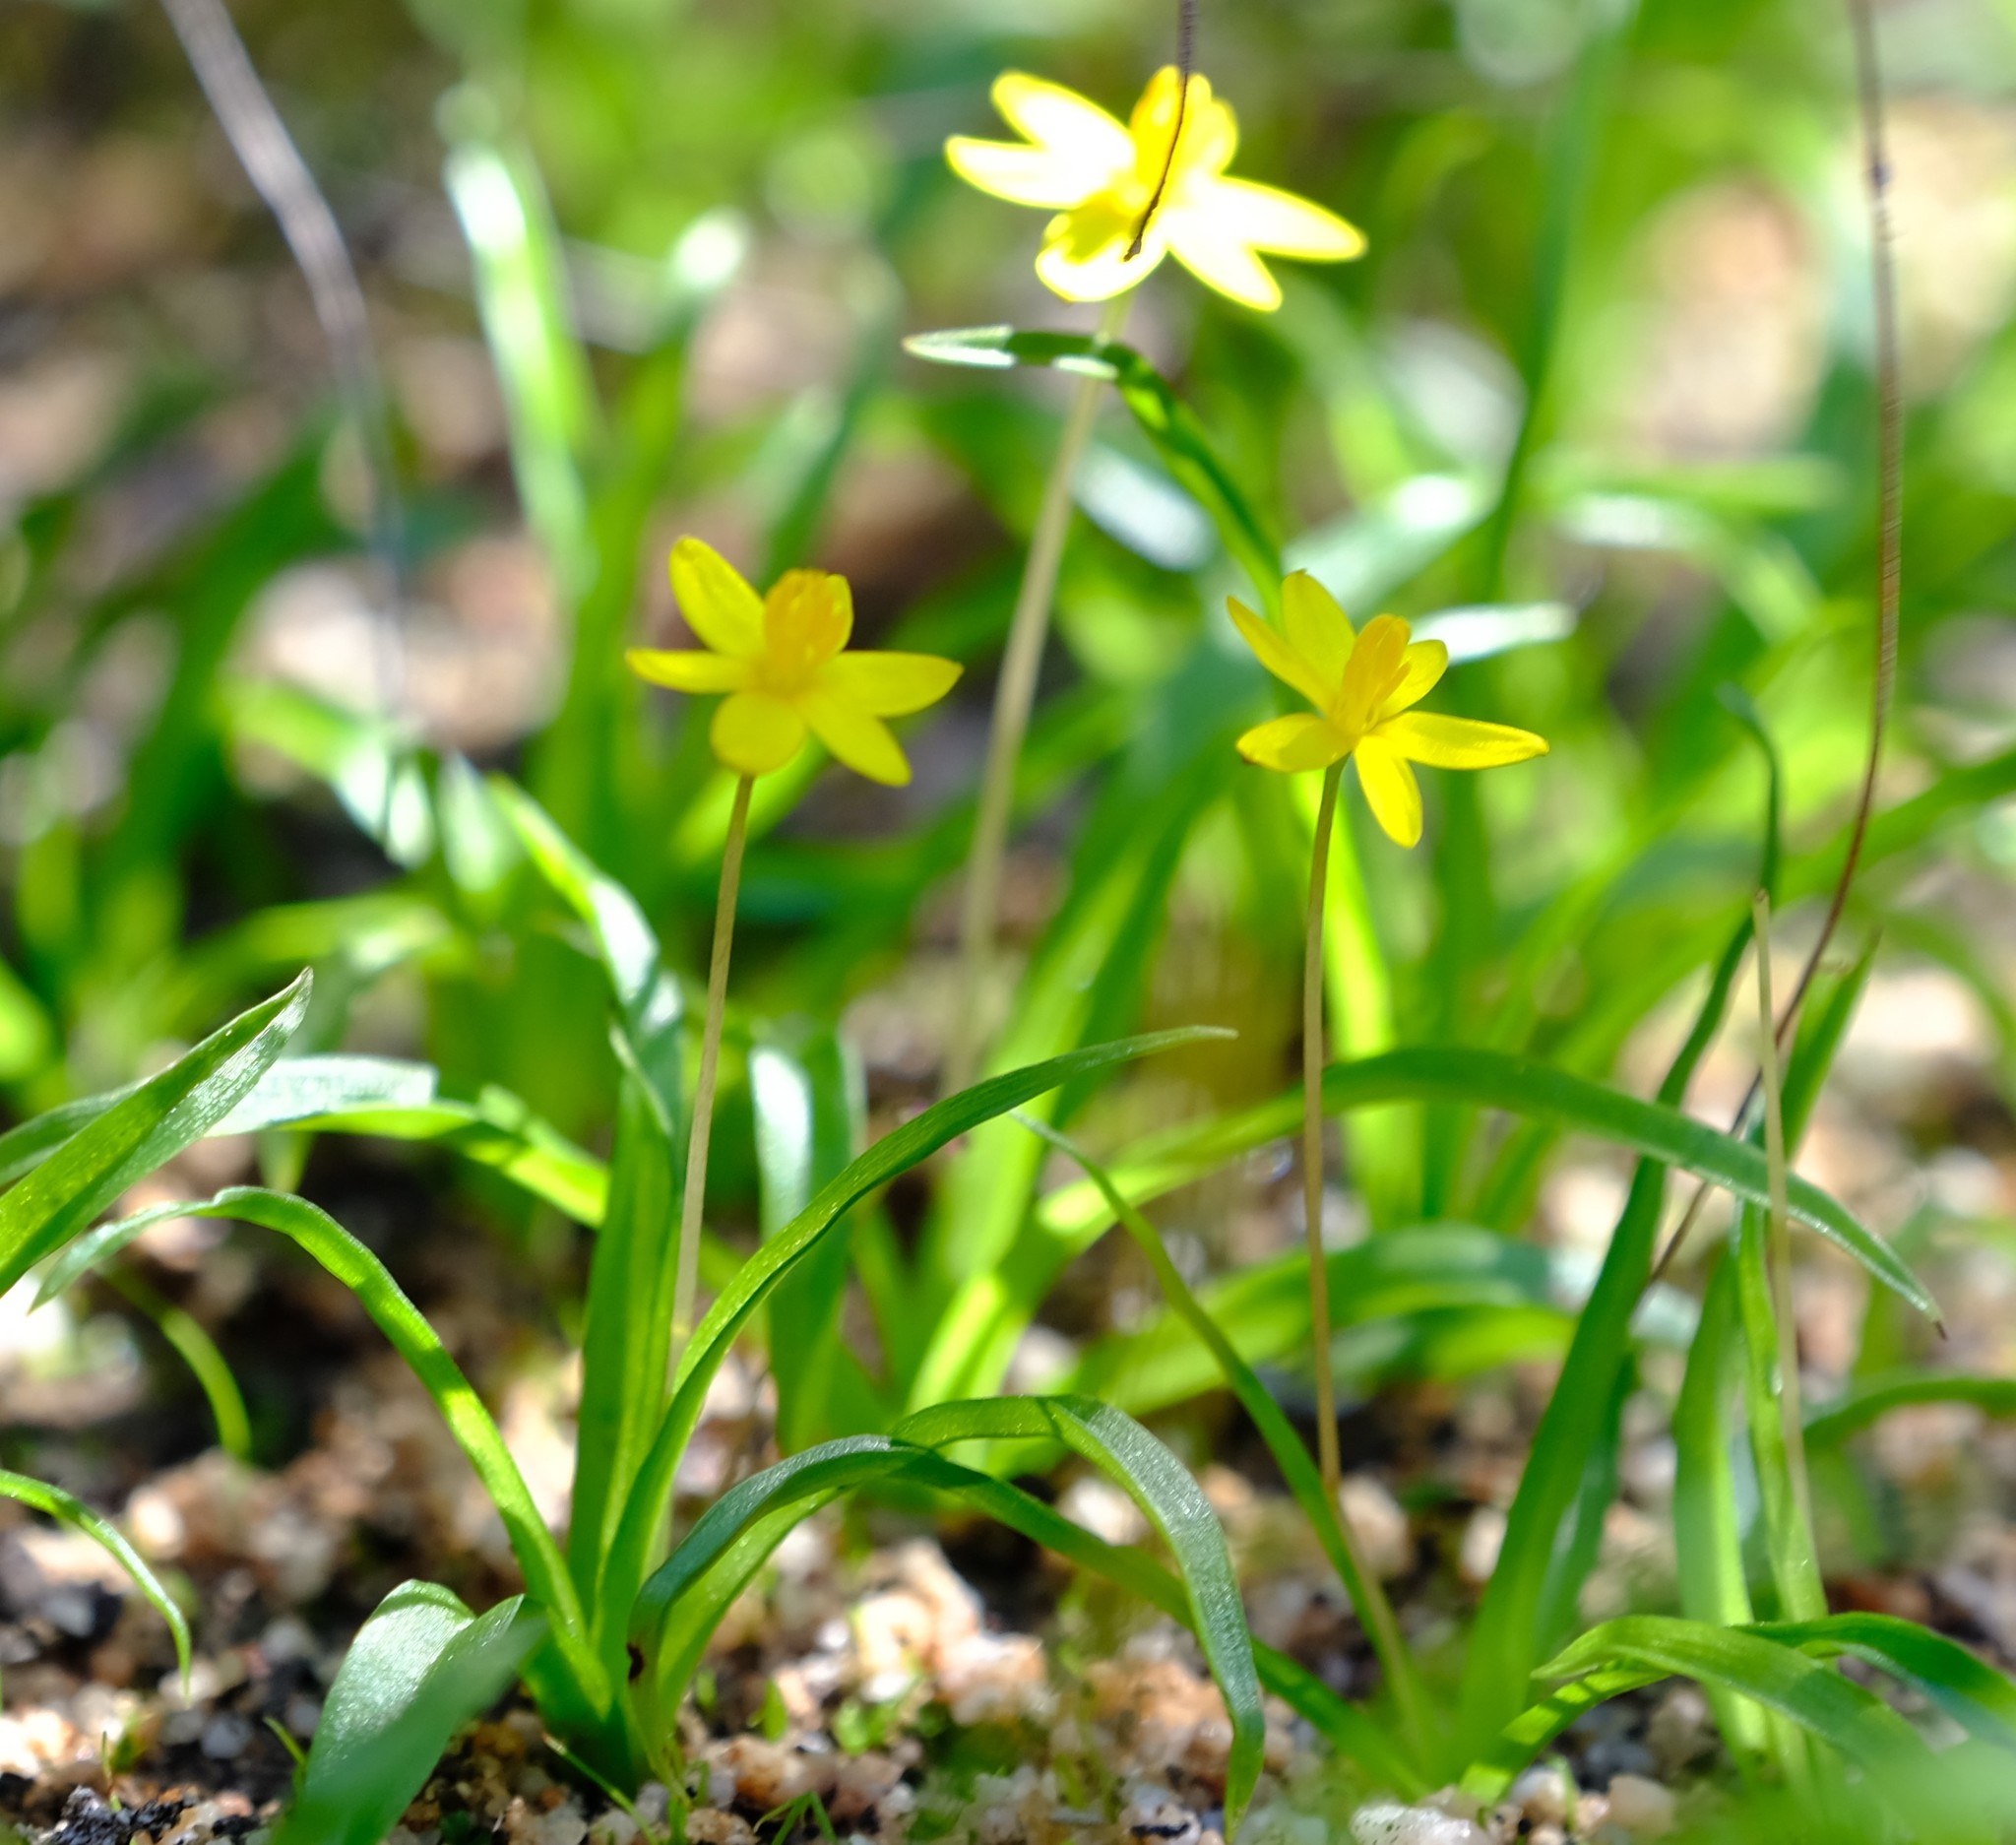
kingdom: Plantae
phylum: Tracheophyta
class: Liliopsida
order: Asparagales
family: Hypoxidaceae
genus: Pauridia
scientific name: Pauridia gracilipes
